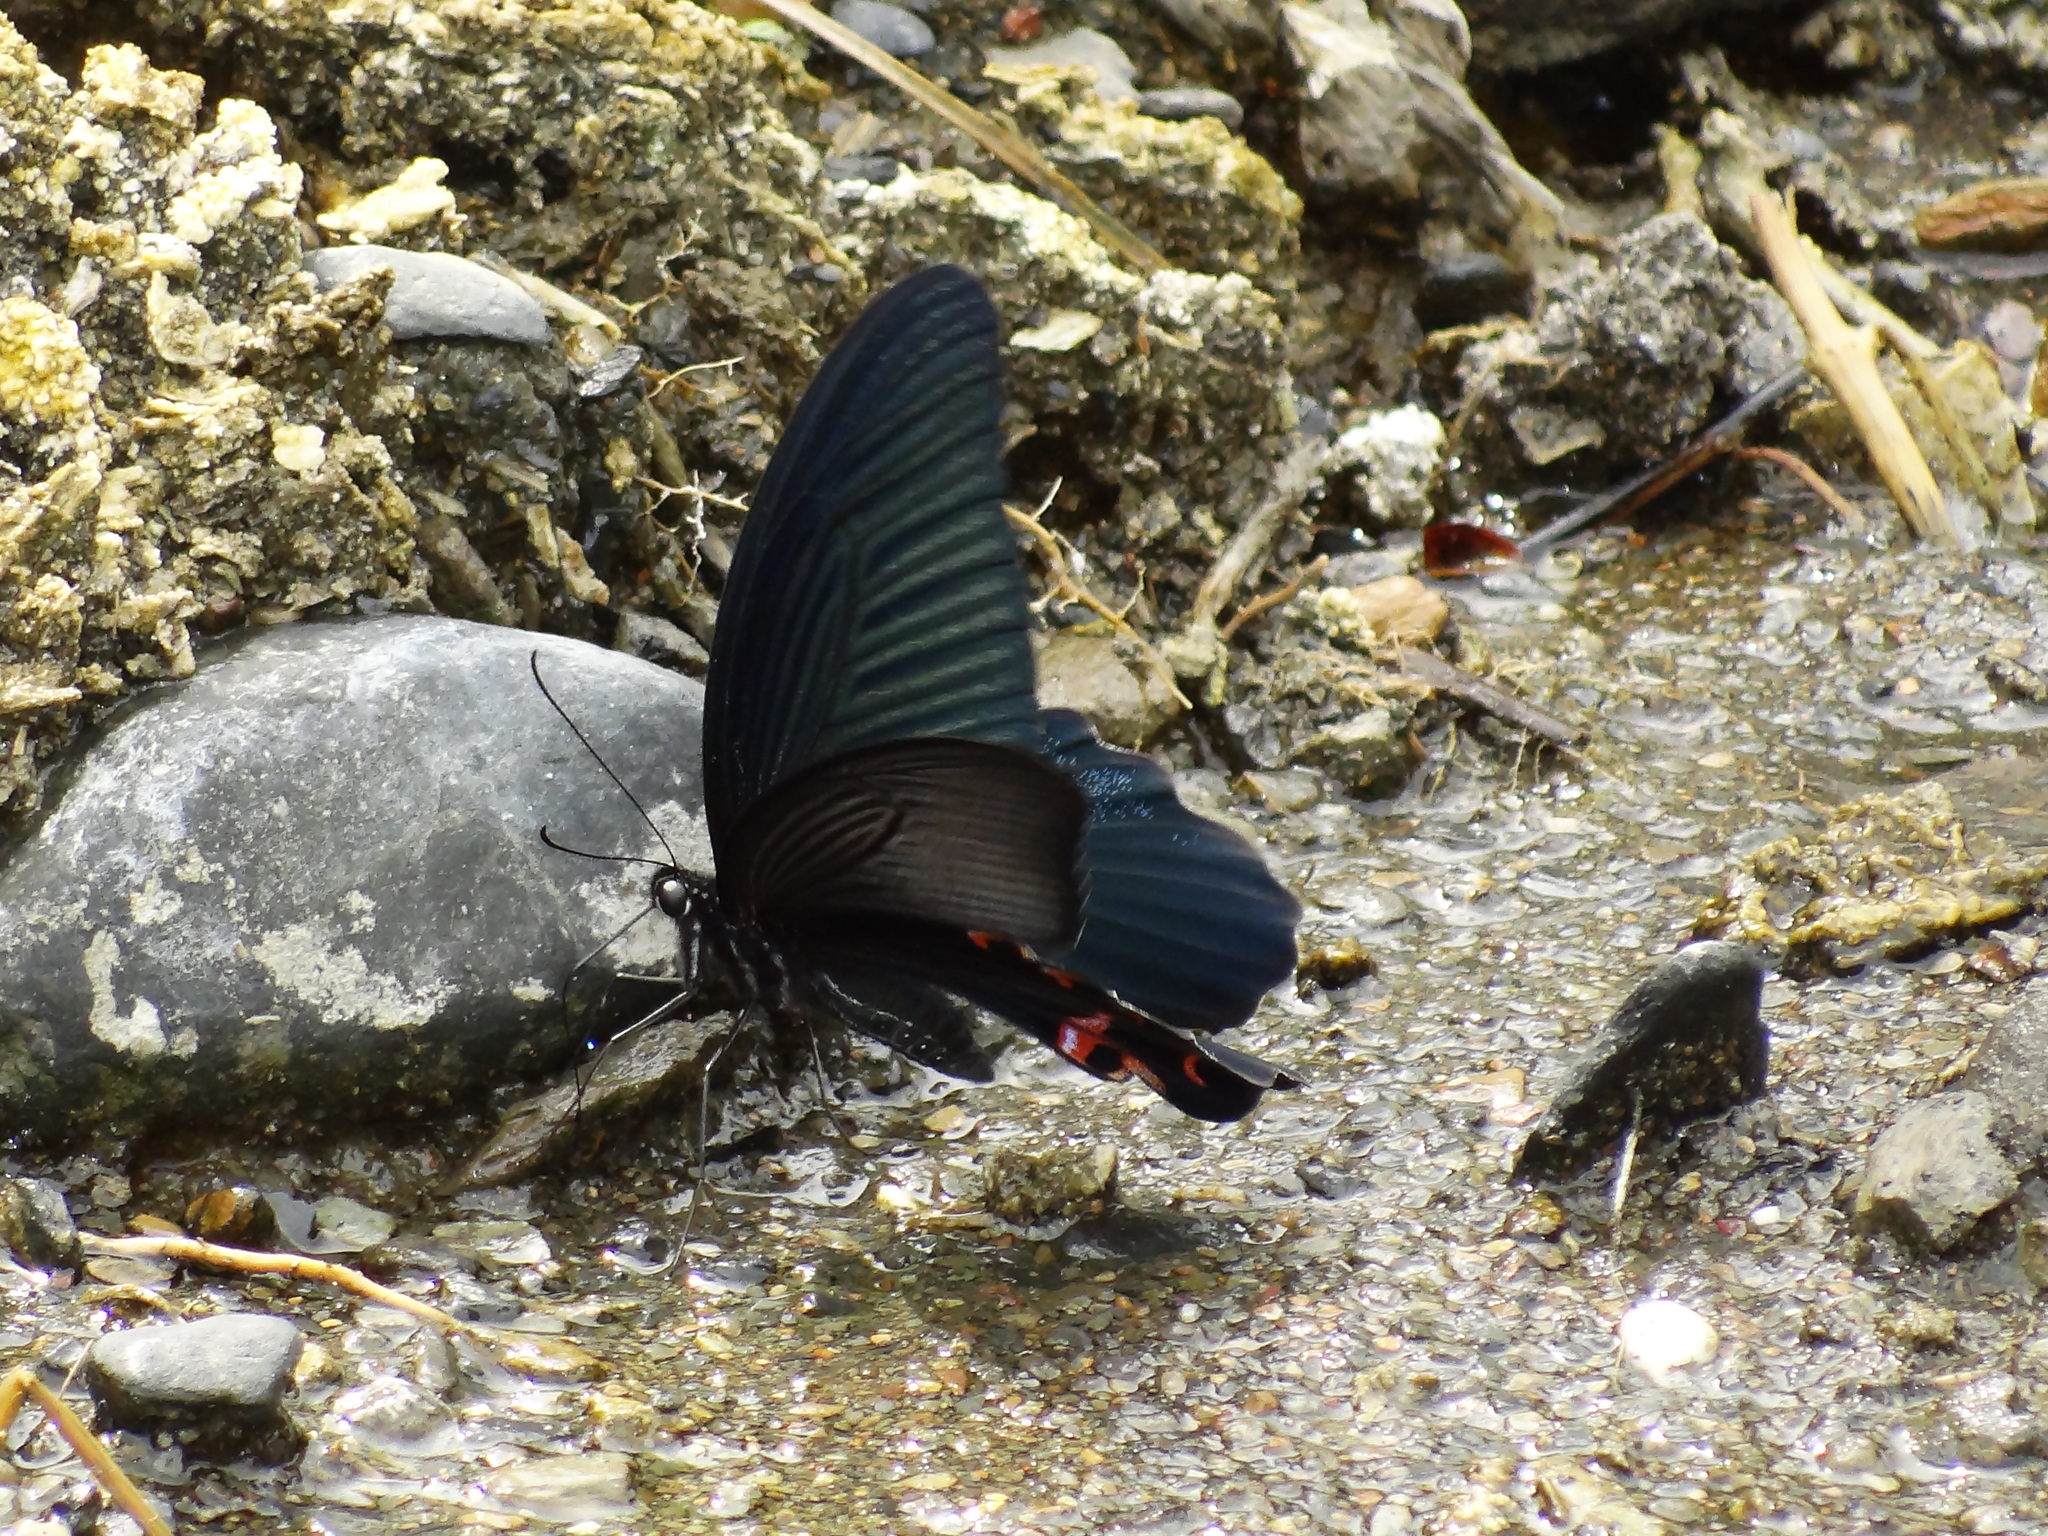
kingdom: Animalia
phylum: Arthropoda
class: Insecta
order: Lepidoptera
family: Papilionidae
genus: Papilio
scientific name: Papilio protenor
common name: Spangle
